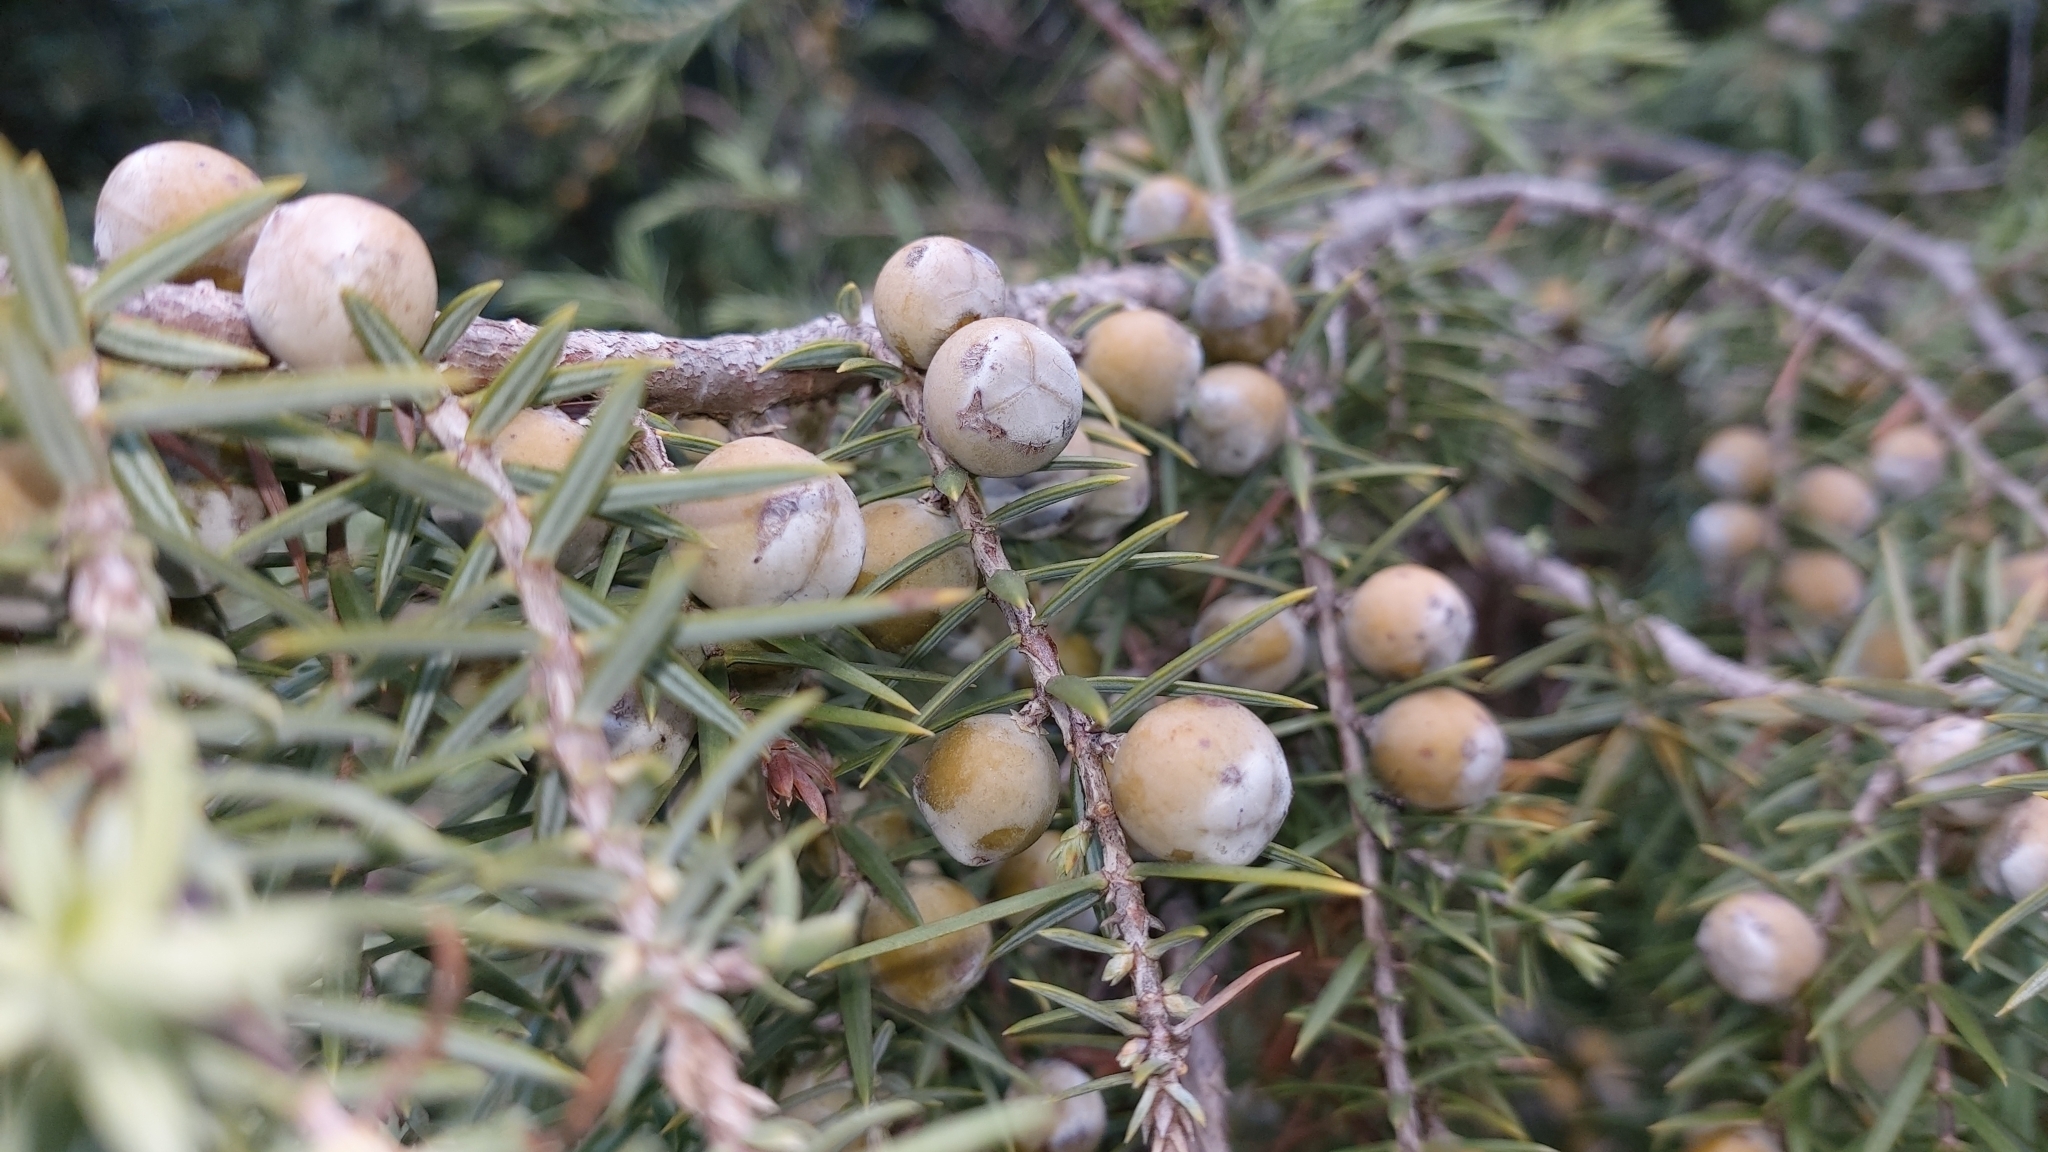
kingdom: Plantae
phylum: Tracheophyta
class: Pinopsida
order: Pinales
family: Cupressaceae
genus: Juniperus
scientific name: Juniperus oxycedrus
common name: Prickly juniper
